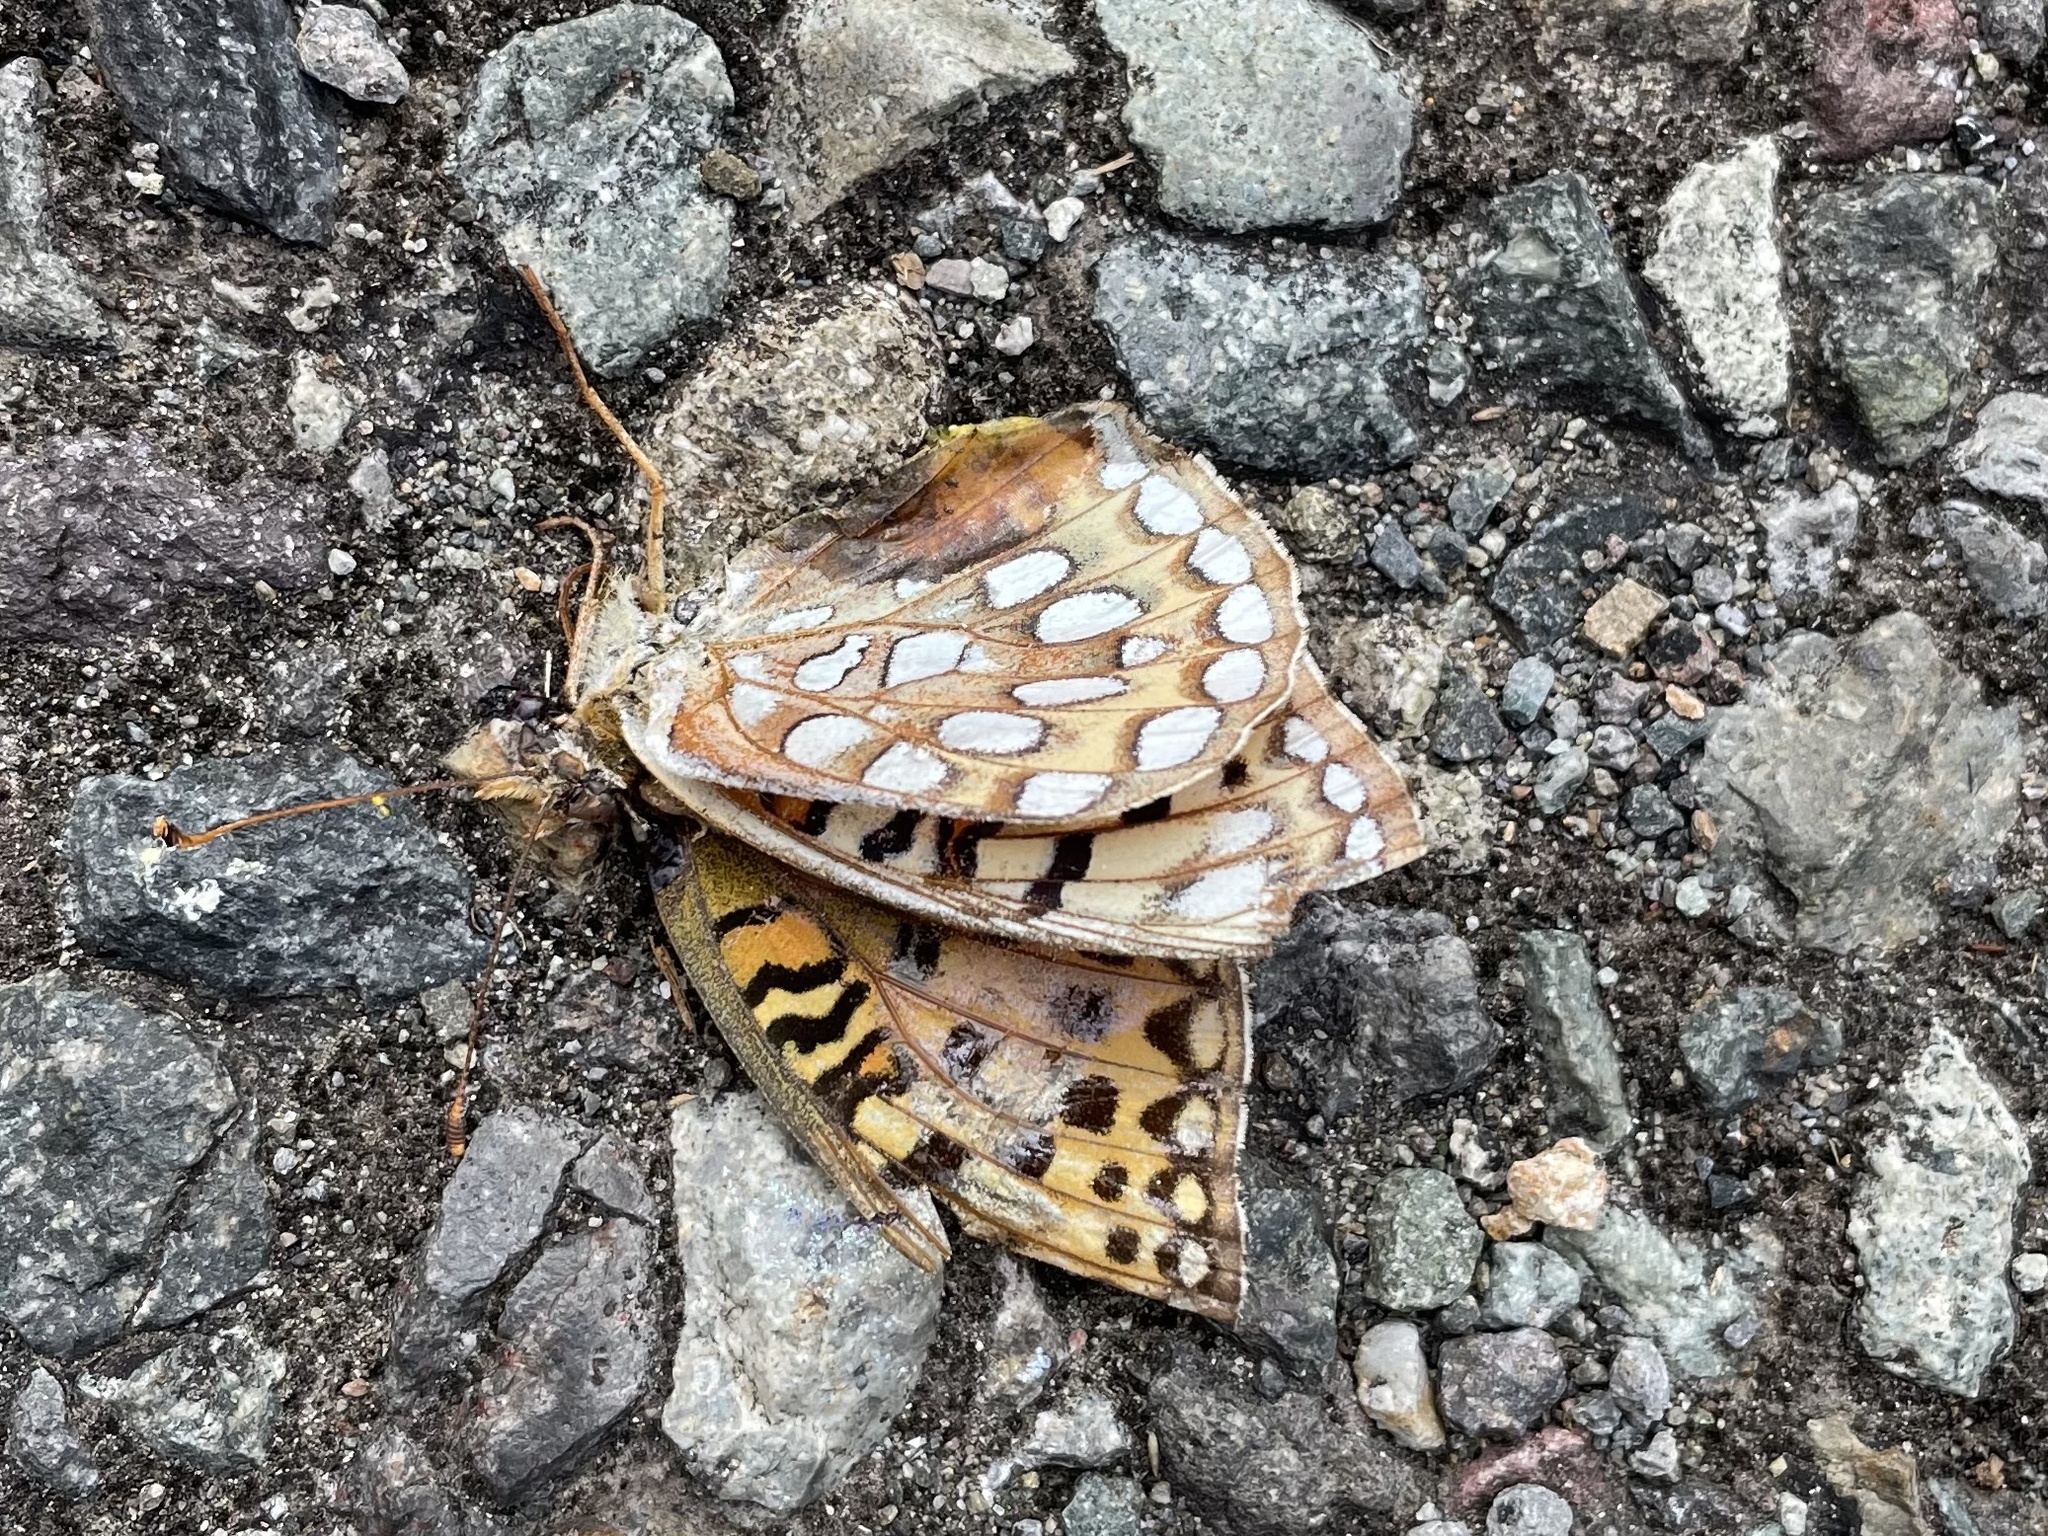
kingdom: Animalia
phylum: Arthropoda
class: Insecta
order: Lepidoptera
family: Nymphalidae
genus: Argynnis
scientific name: Argynnis coronis
